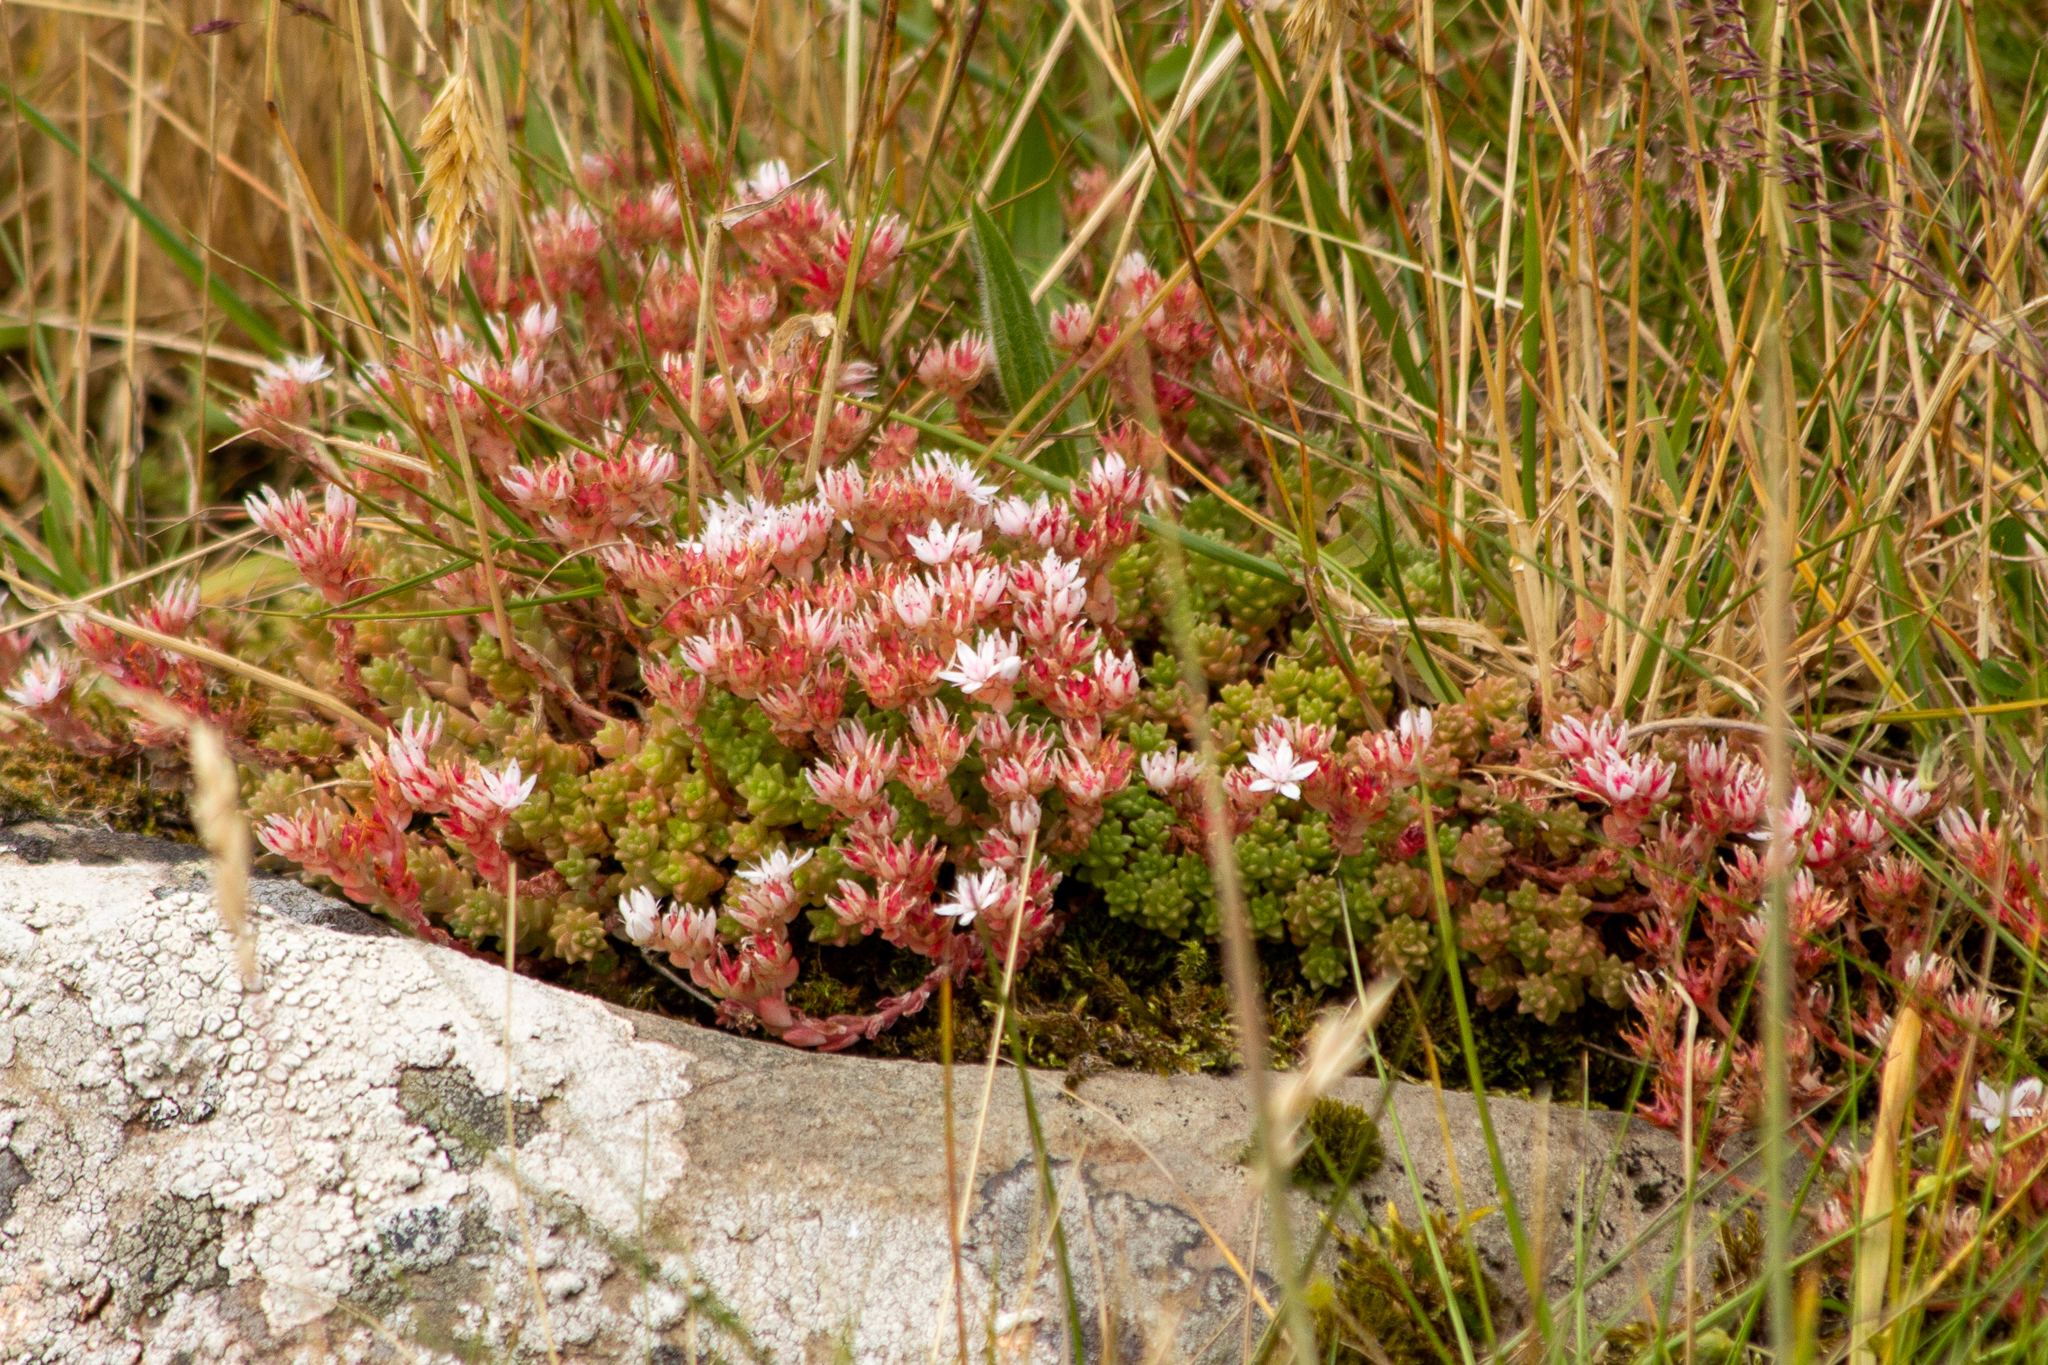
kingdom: Plantae
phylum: Tracheophyta
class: Magnoliopsida
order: Saxifragales
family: Crassulaceae
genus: Sedum
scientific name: Sedum anglicum
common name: English stonecrop
